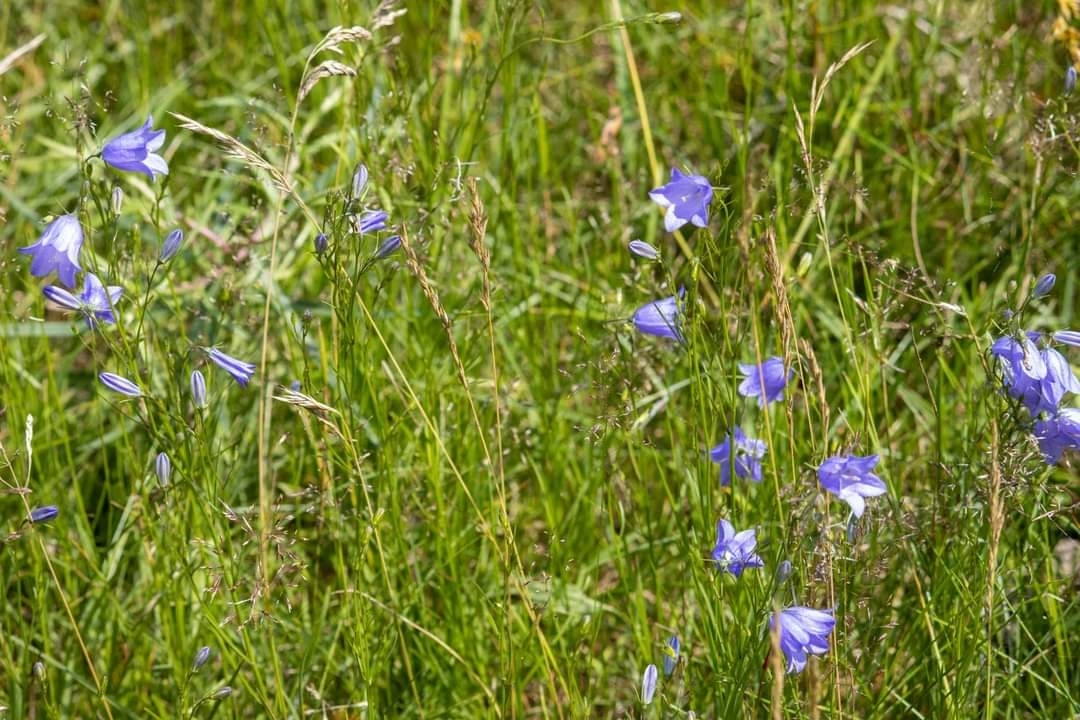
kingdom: Plantae
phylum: Tracheophyta
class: Magnoliopsida
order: Asterales
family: Campanulaceae
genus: Campanula
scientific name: Campanula rotundifolia
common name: Harebell
